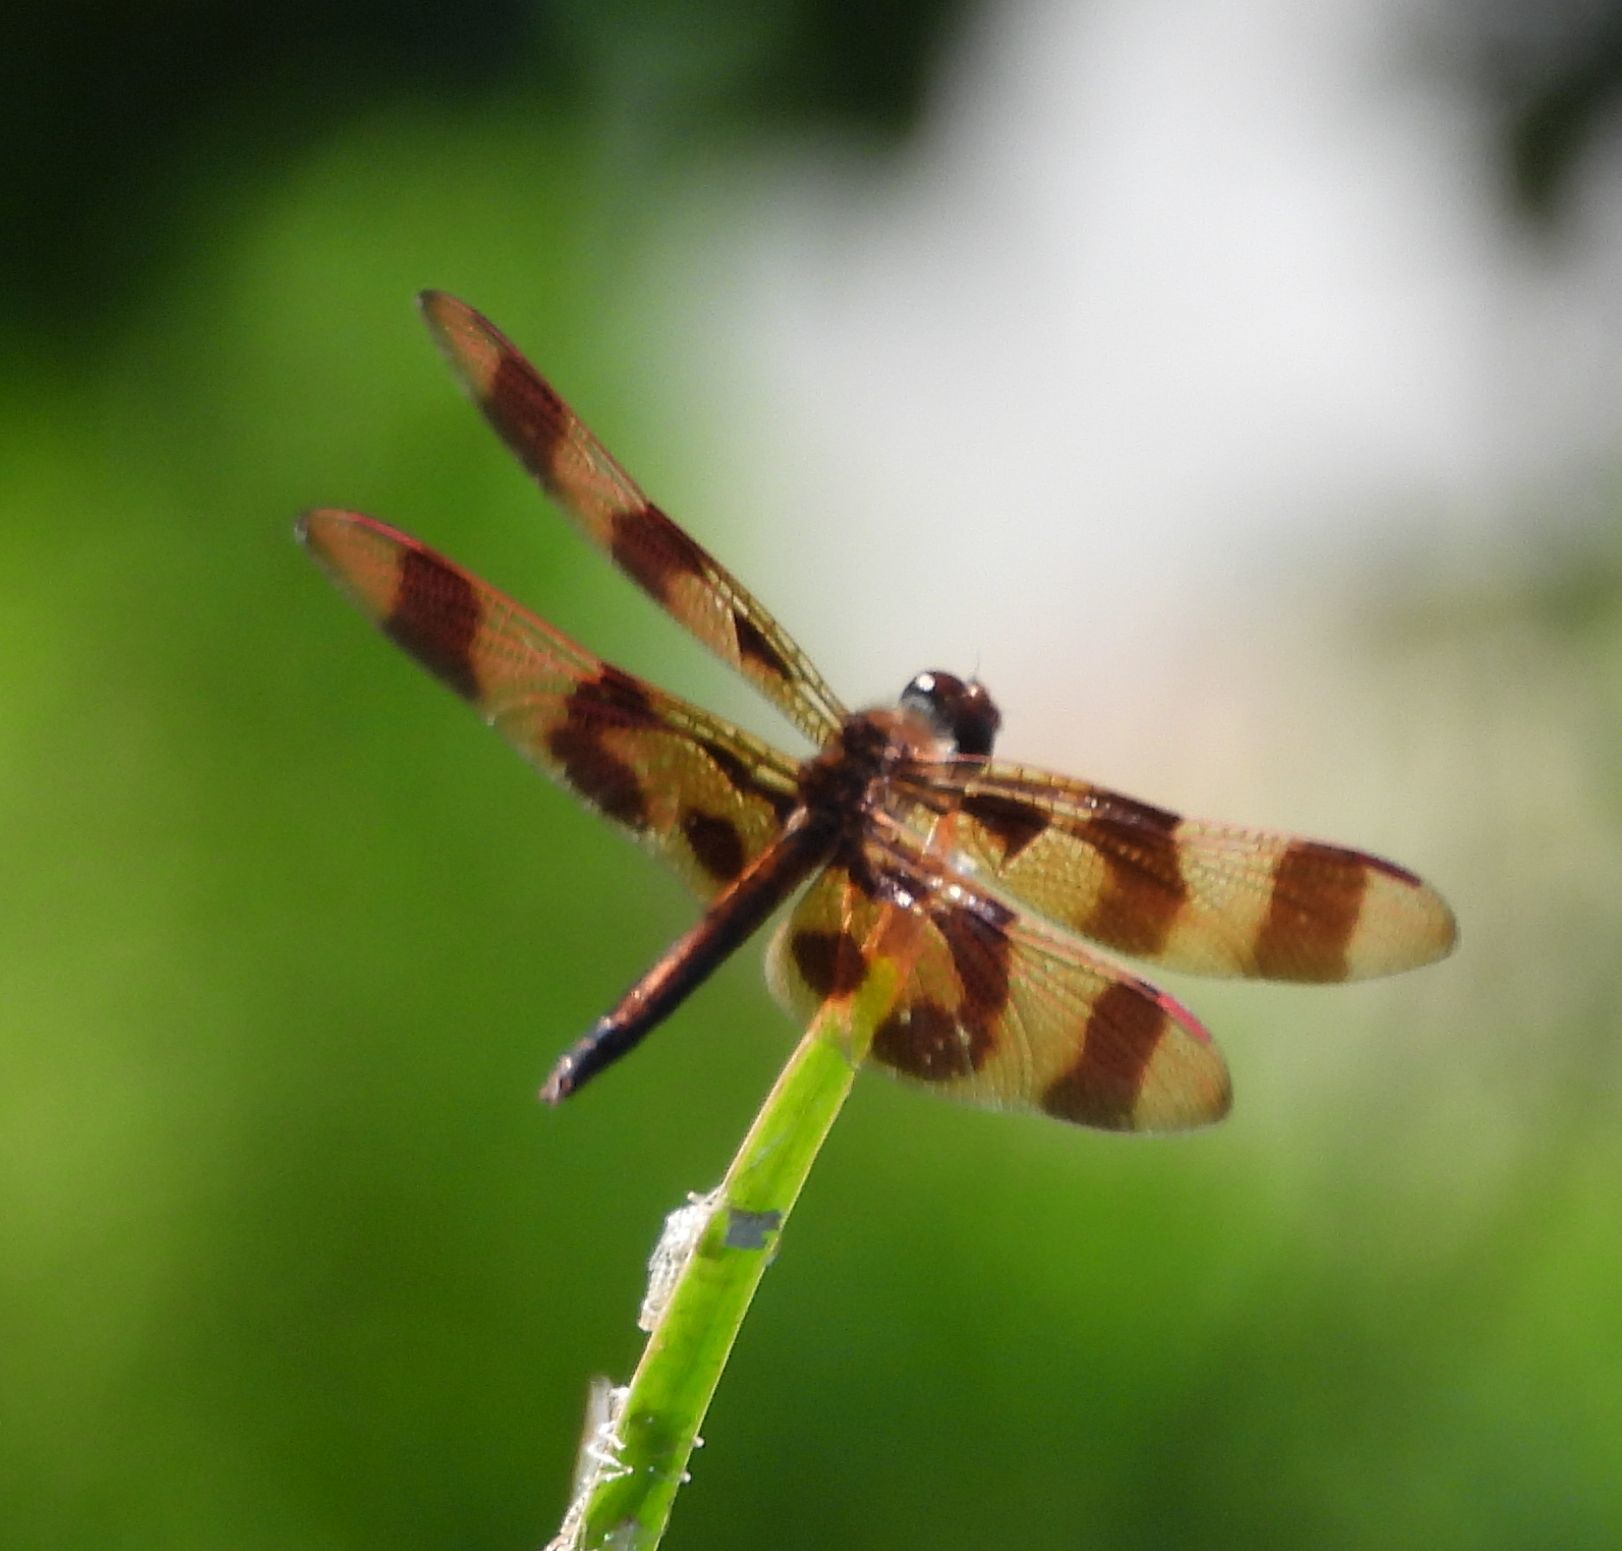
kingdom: Animalia
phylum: Arthropoda
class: Insecta
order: Odonata
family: Libellulidae
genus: Celithemis
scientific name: Celithemis eponina
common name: Halloween pennant
